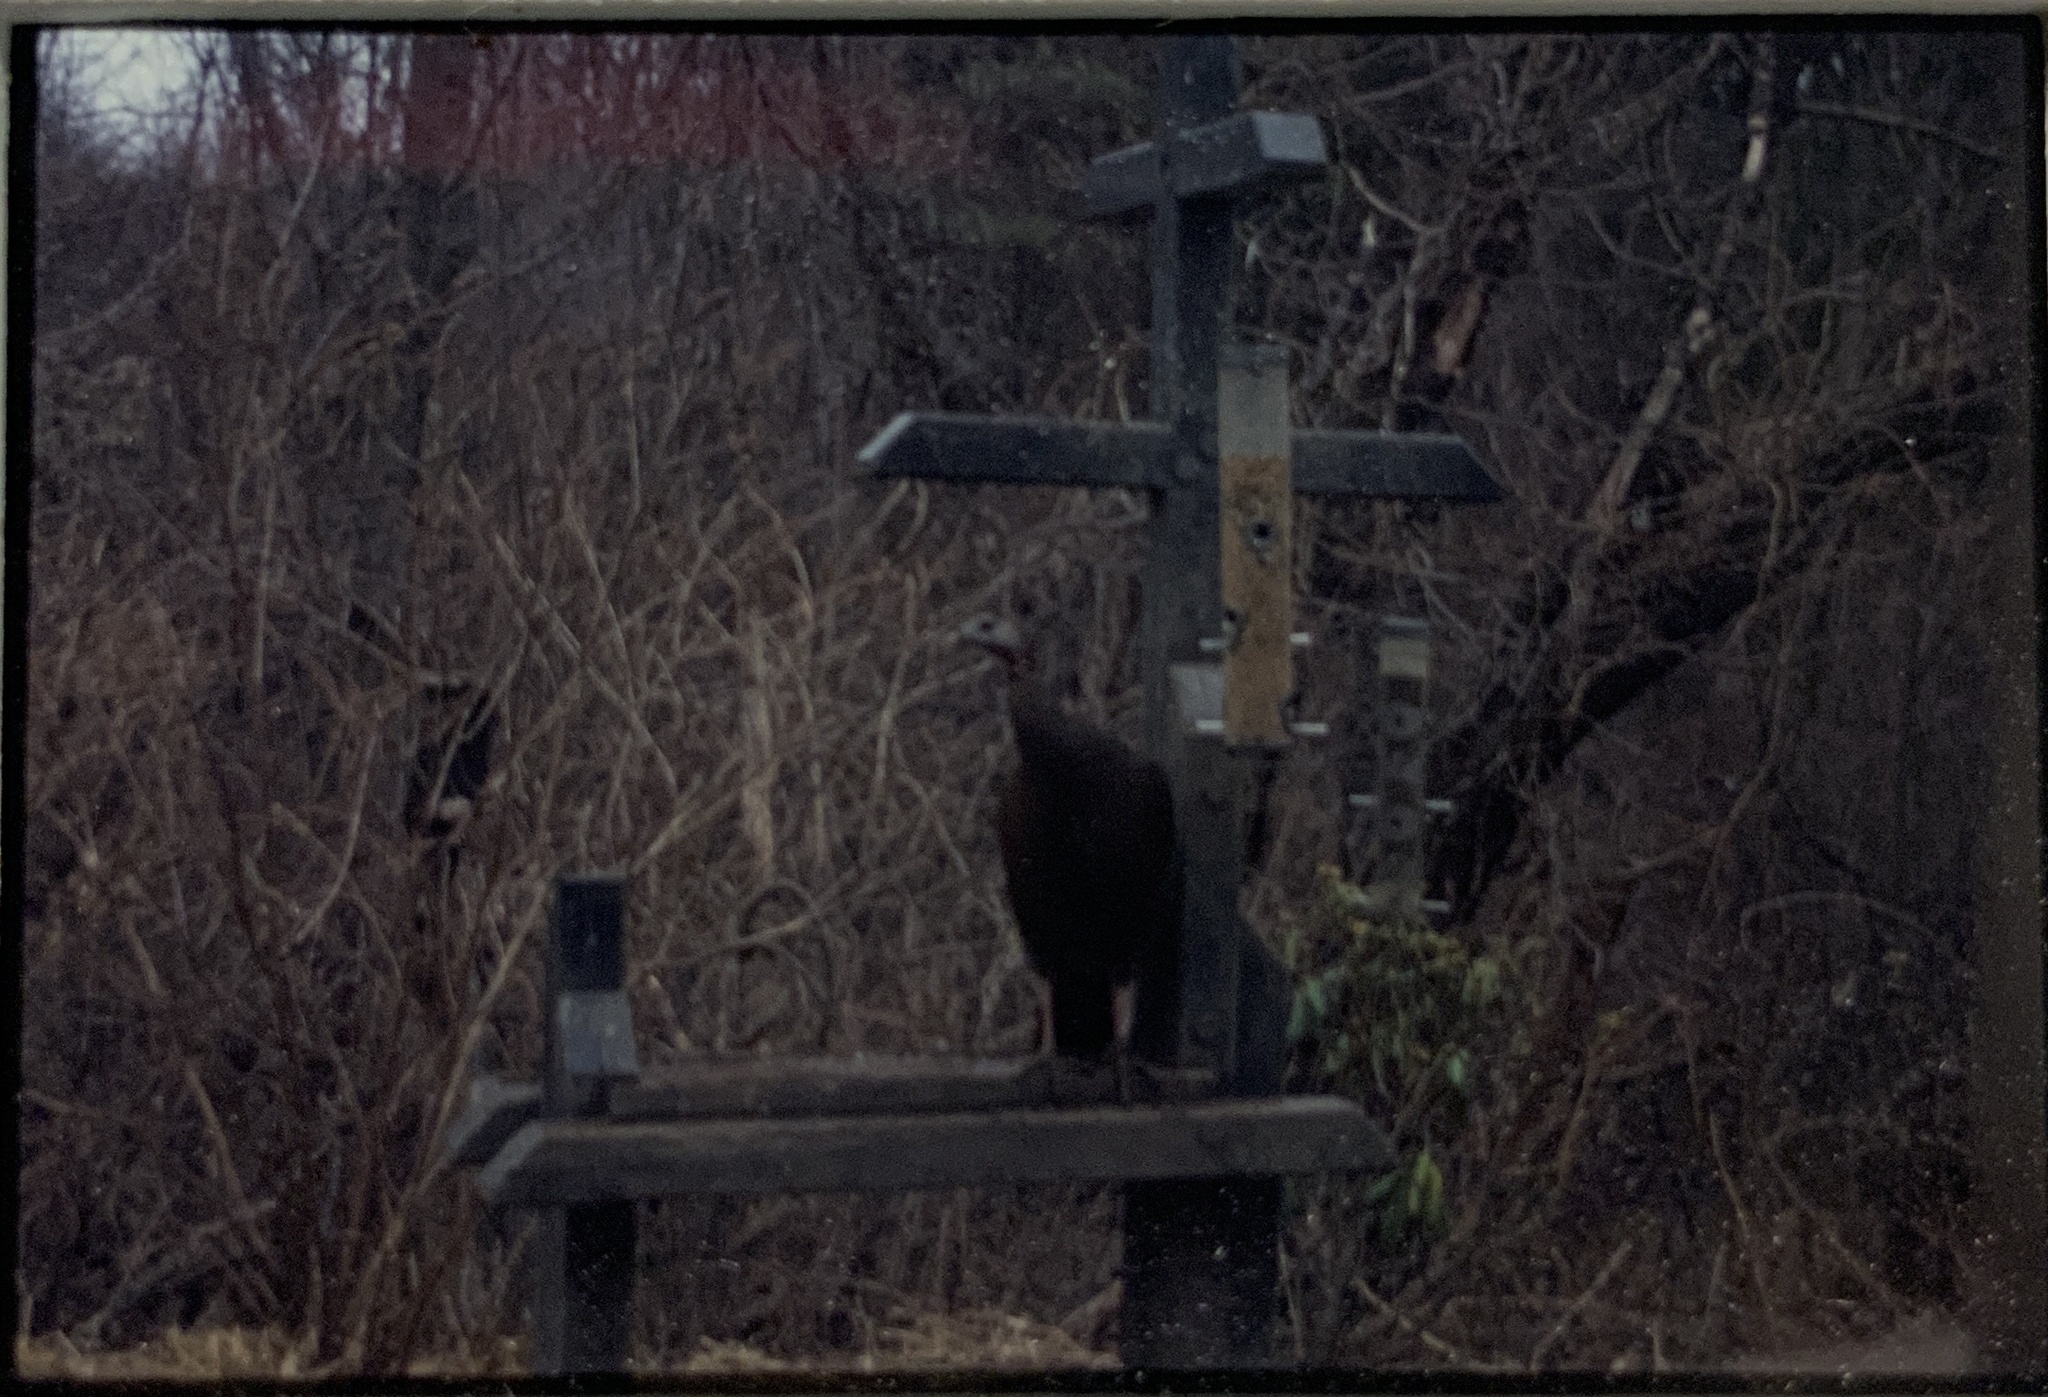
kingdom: Animalia
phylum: Chordata
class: Aves
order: Galliformes
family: Phasianidae
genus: Meleagris
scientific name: Meleagris gallopavo
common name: Wild turkey
